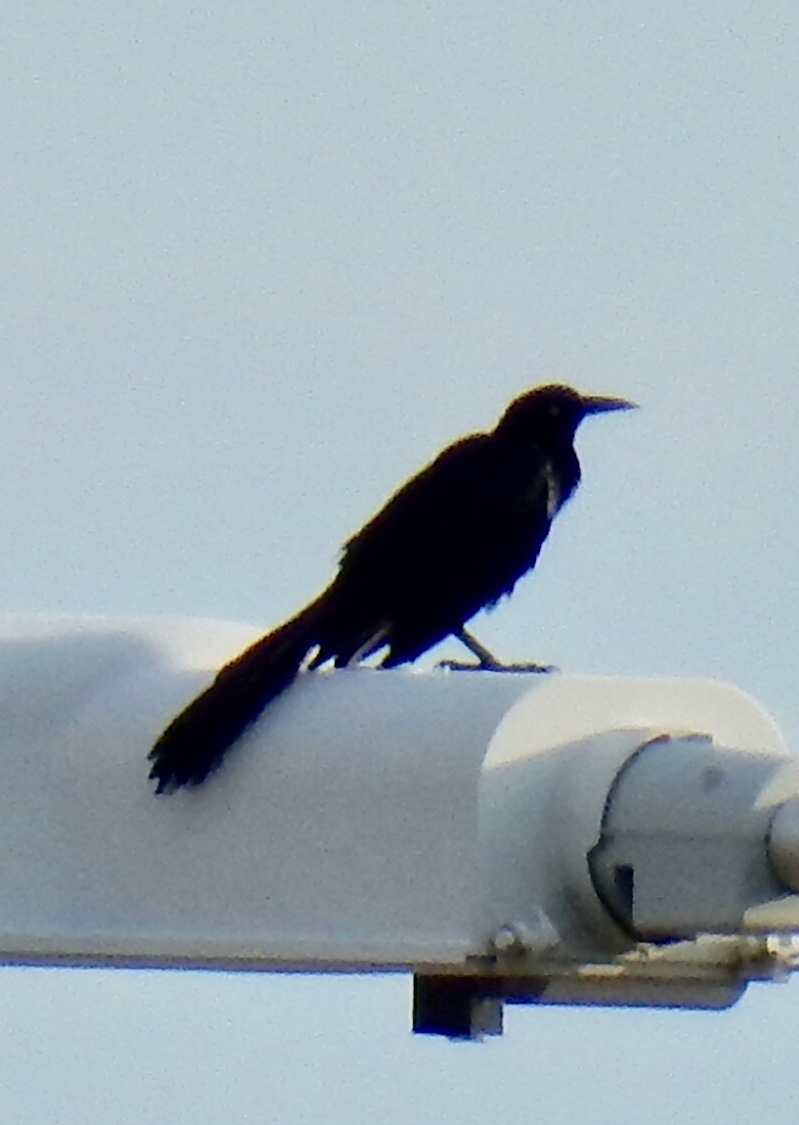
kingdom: Animalia
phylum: Chordata
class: Aves
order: Passeriformes
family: Icteridae
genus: Quiscalus
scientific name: Quiscalus mexicanus
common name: Great-tailed grackle
